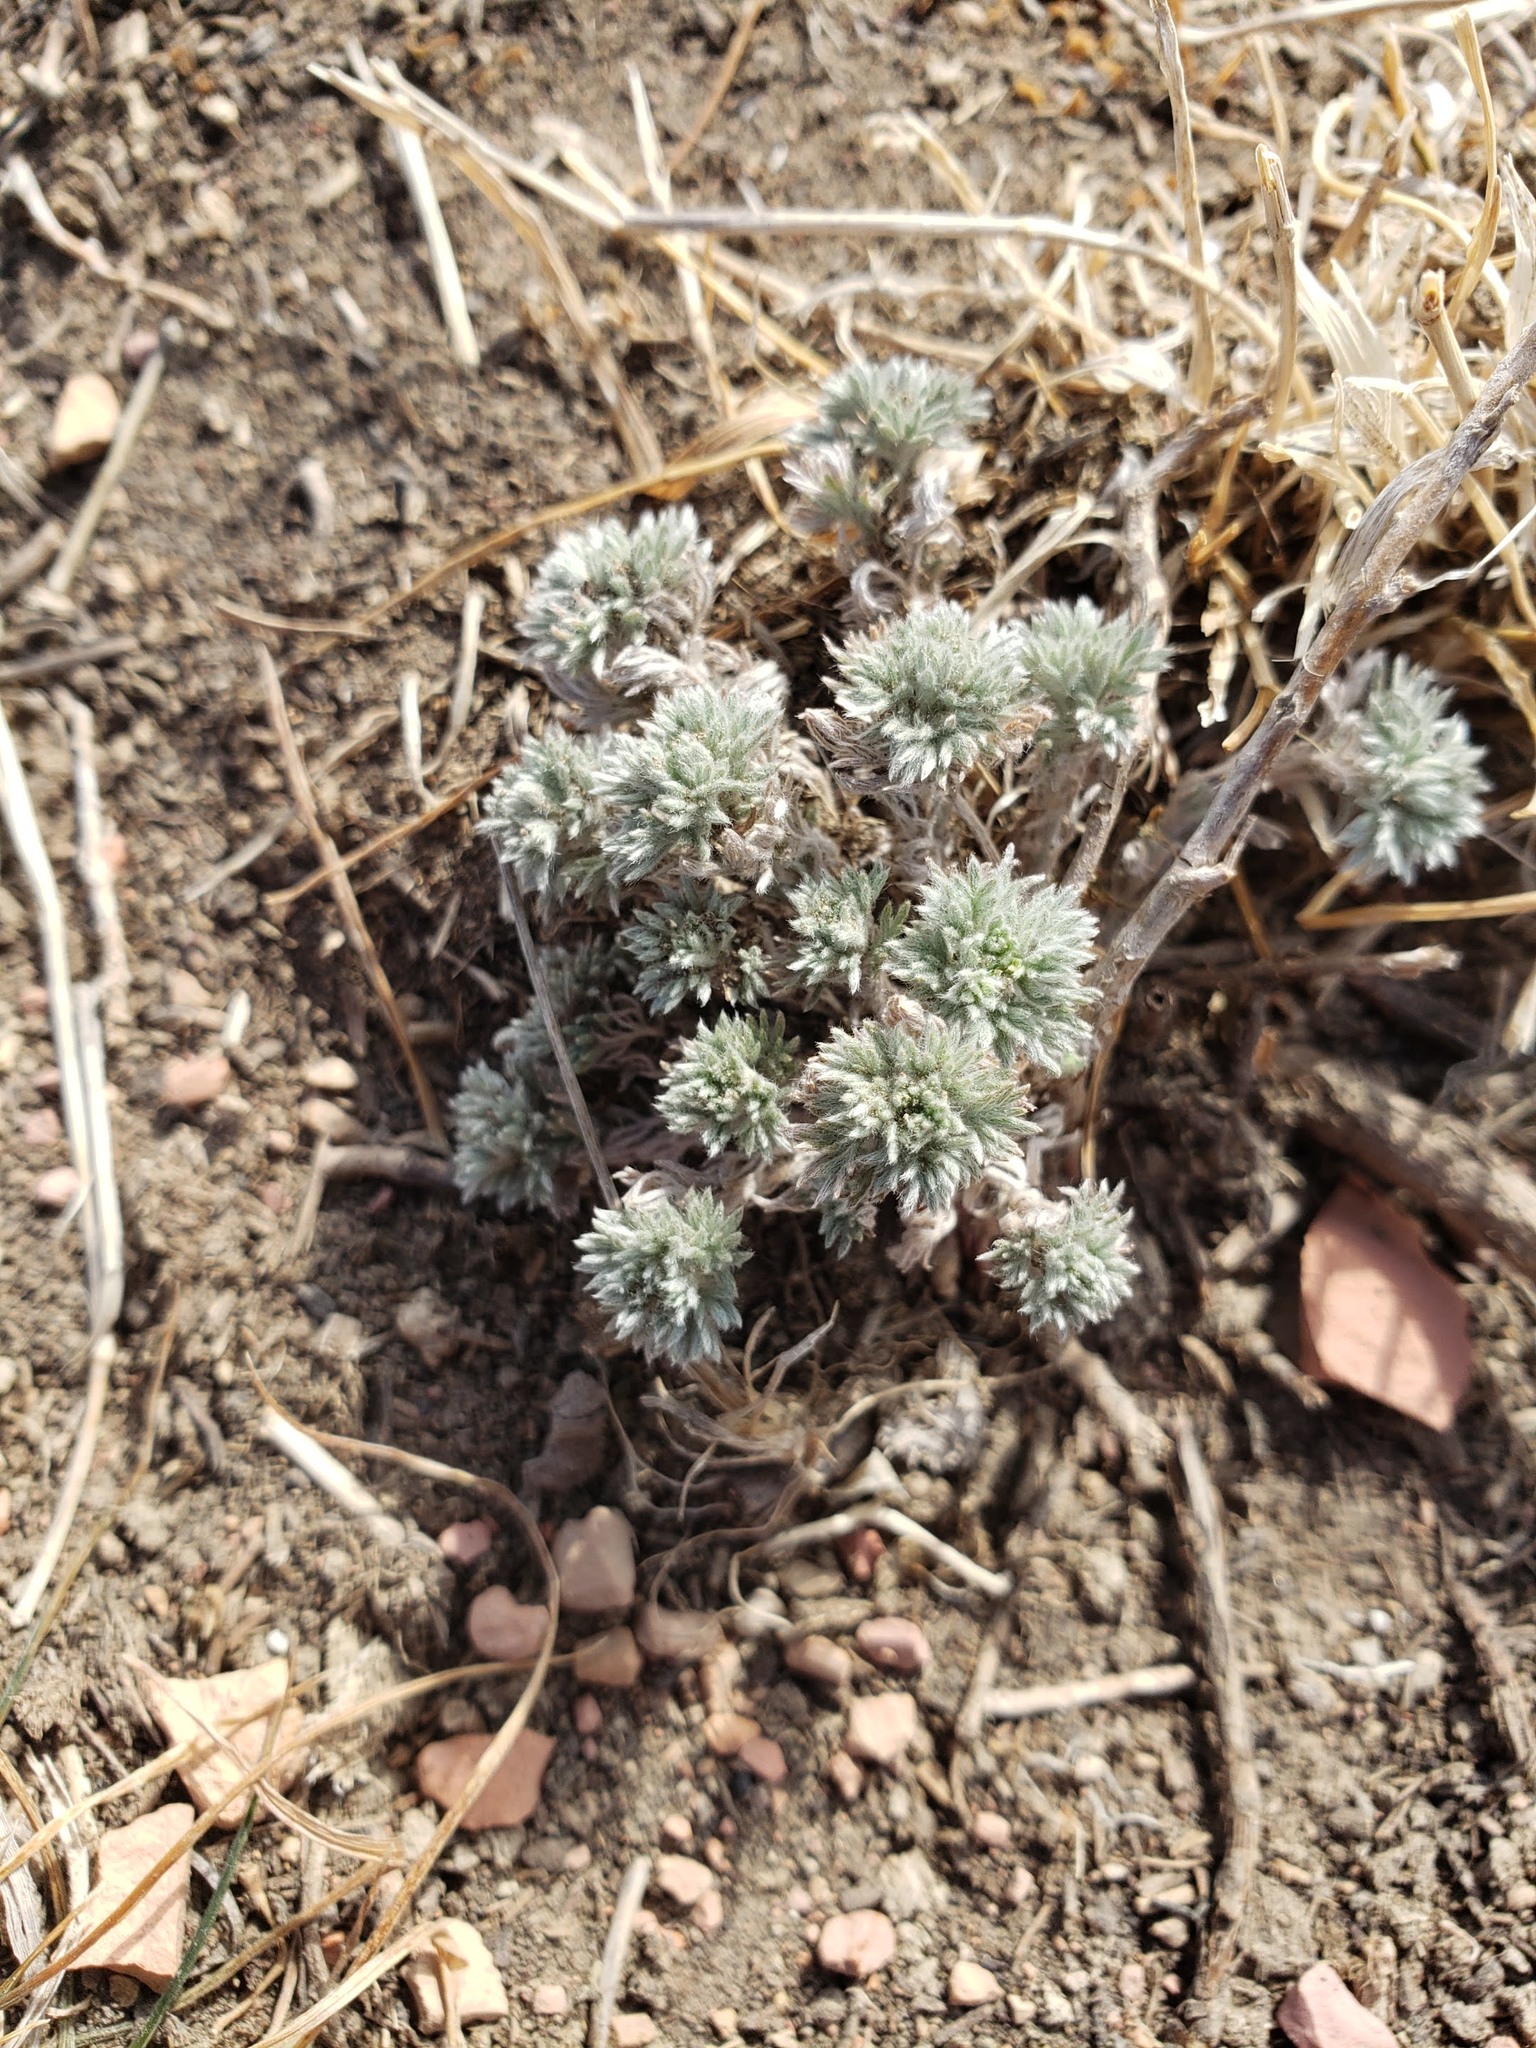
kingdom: Plantae
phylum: Tracheophyta
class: Magnoliopsida
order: Asterales
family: Asteraceae
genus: Artemisia
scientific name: Artemisia frigida
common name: Prairie sagewort
